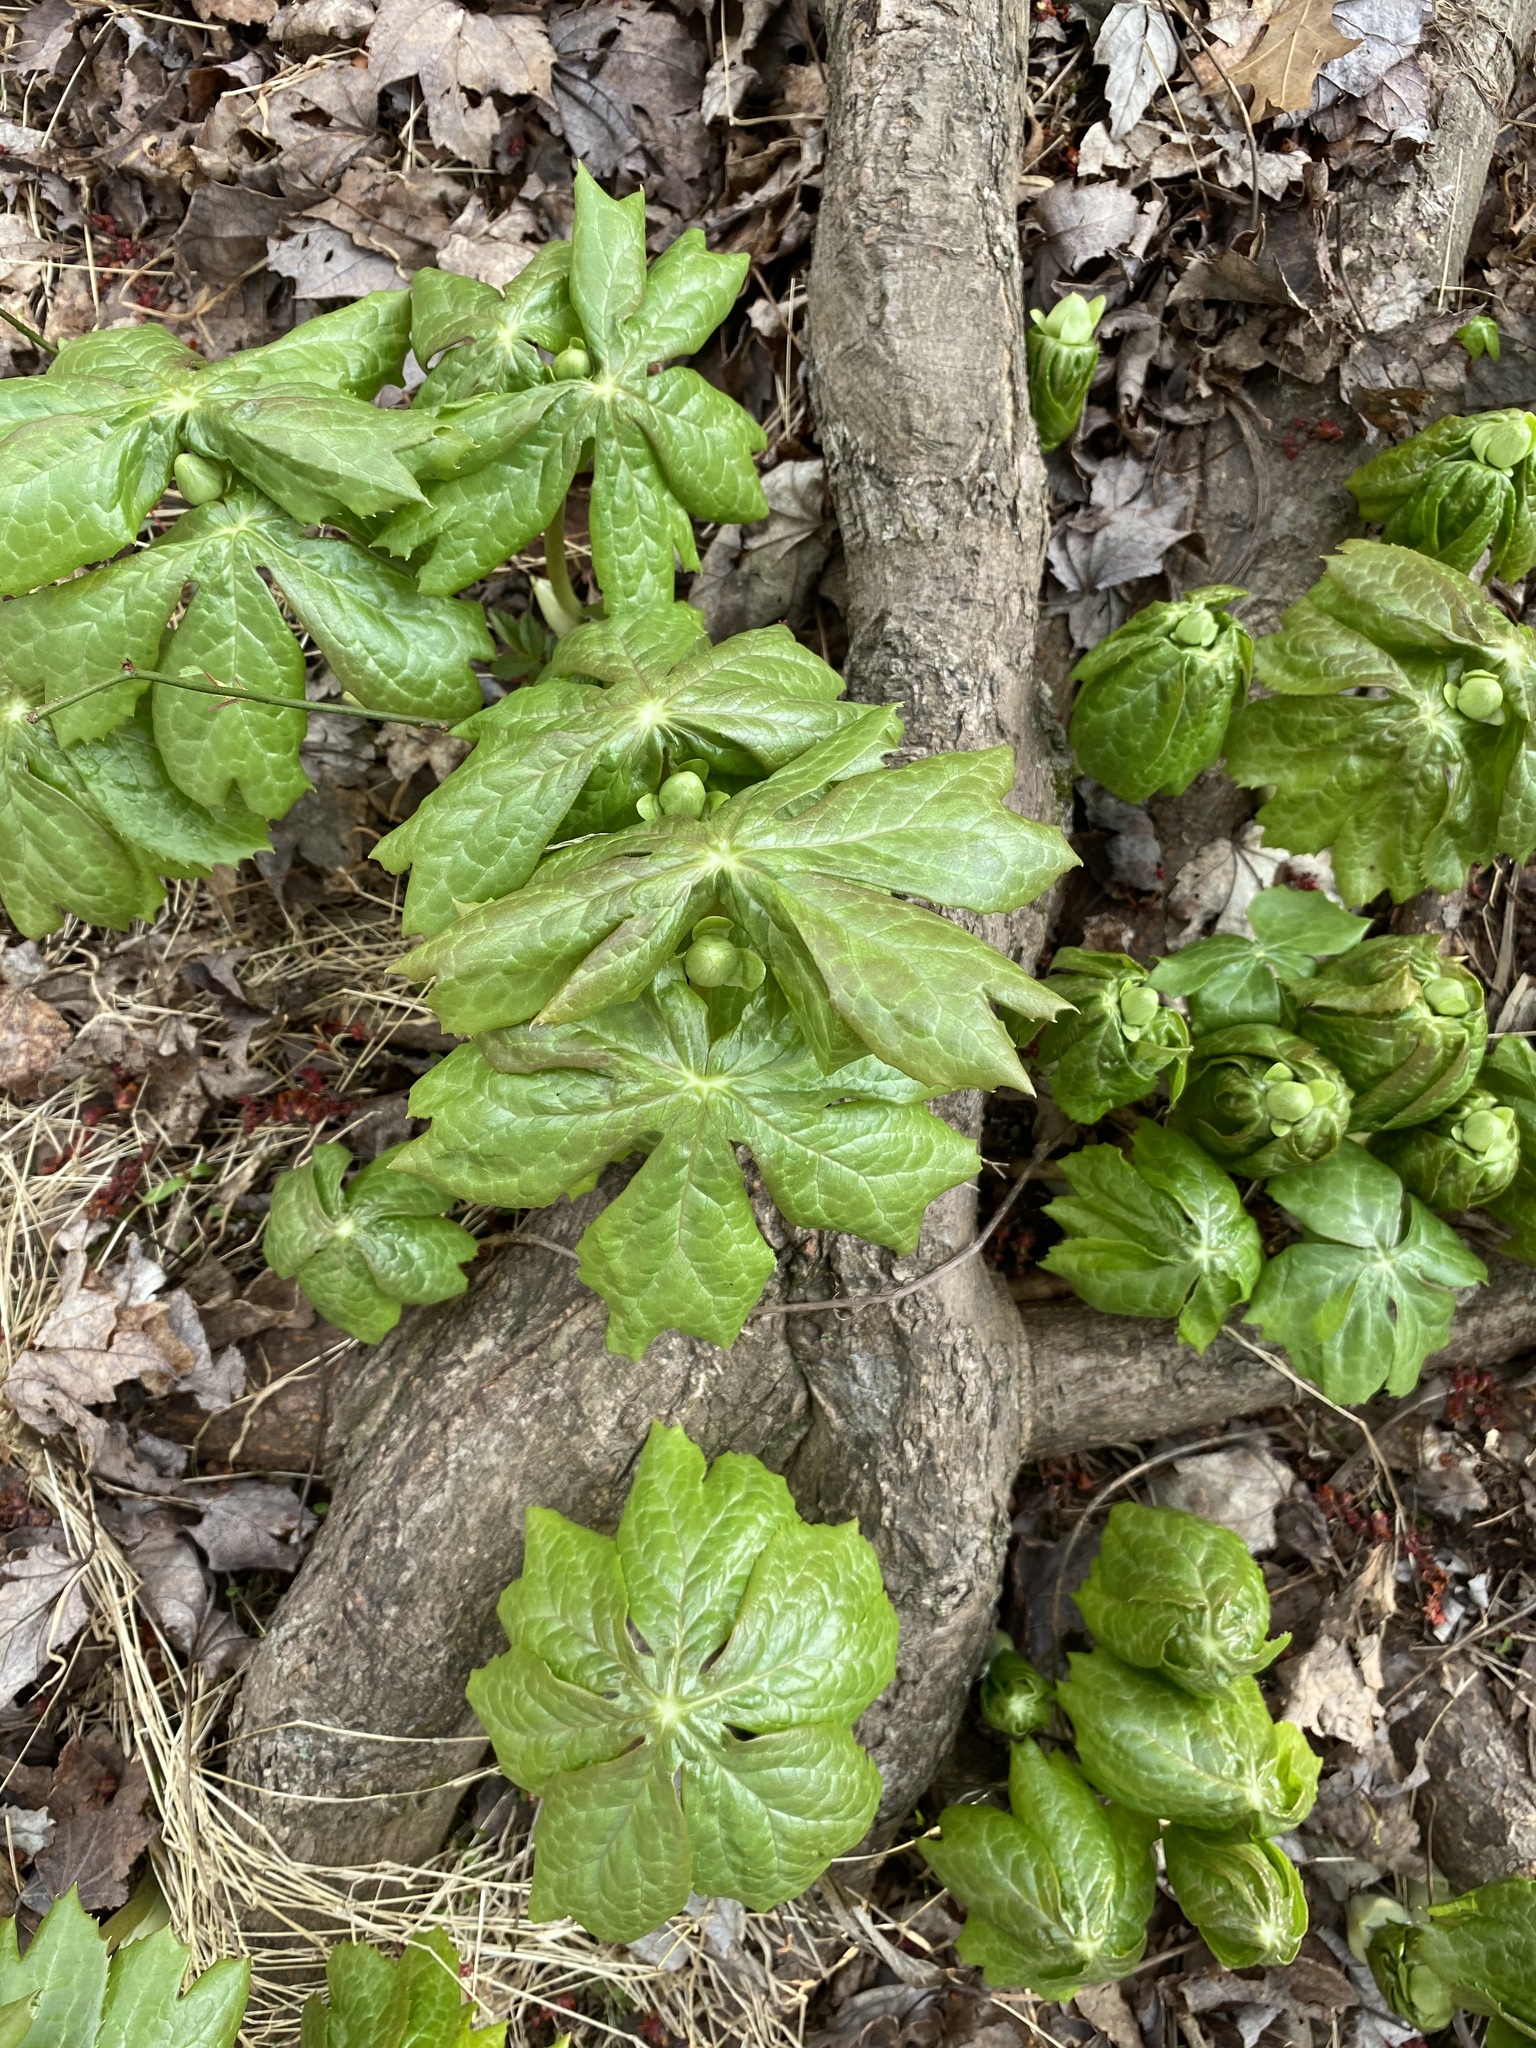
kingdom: Plantae
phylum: Tracheophyta
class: Magnoliopsida
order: Ranunculales
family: Berberidaceae
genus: Podophyllum
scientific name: Podophyllum peltatum
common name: Wild mandrake
